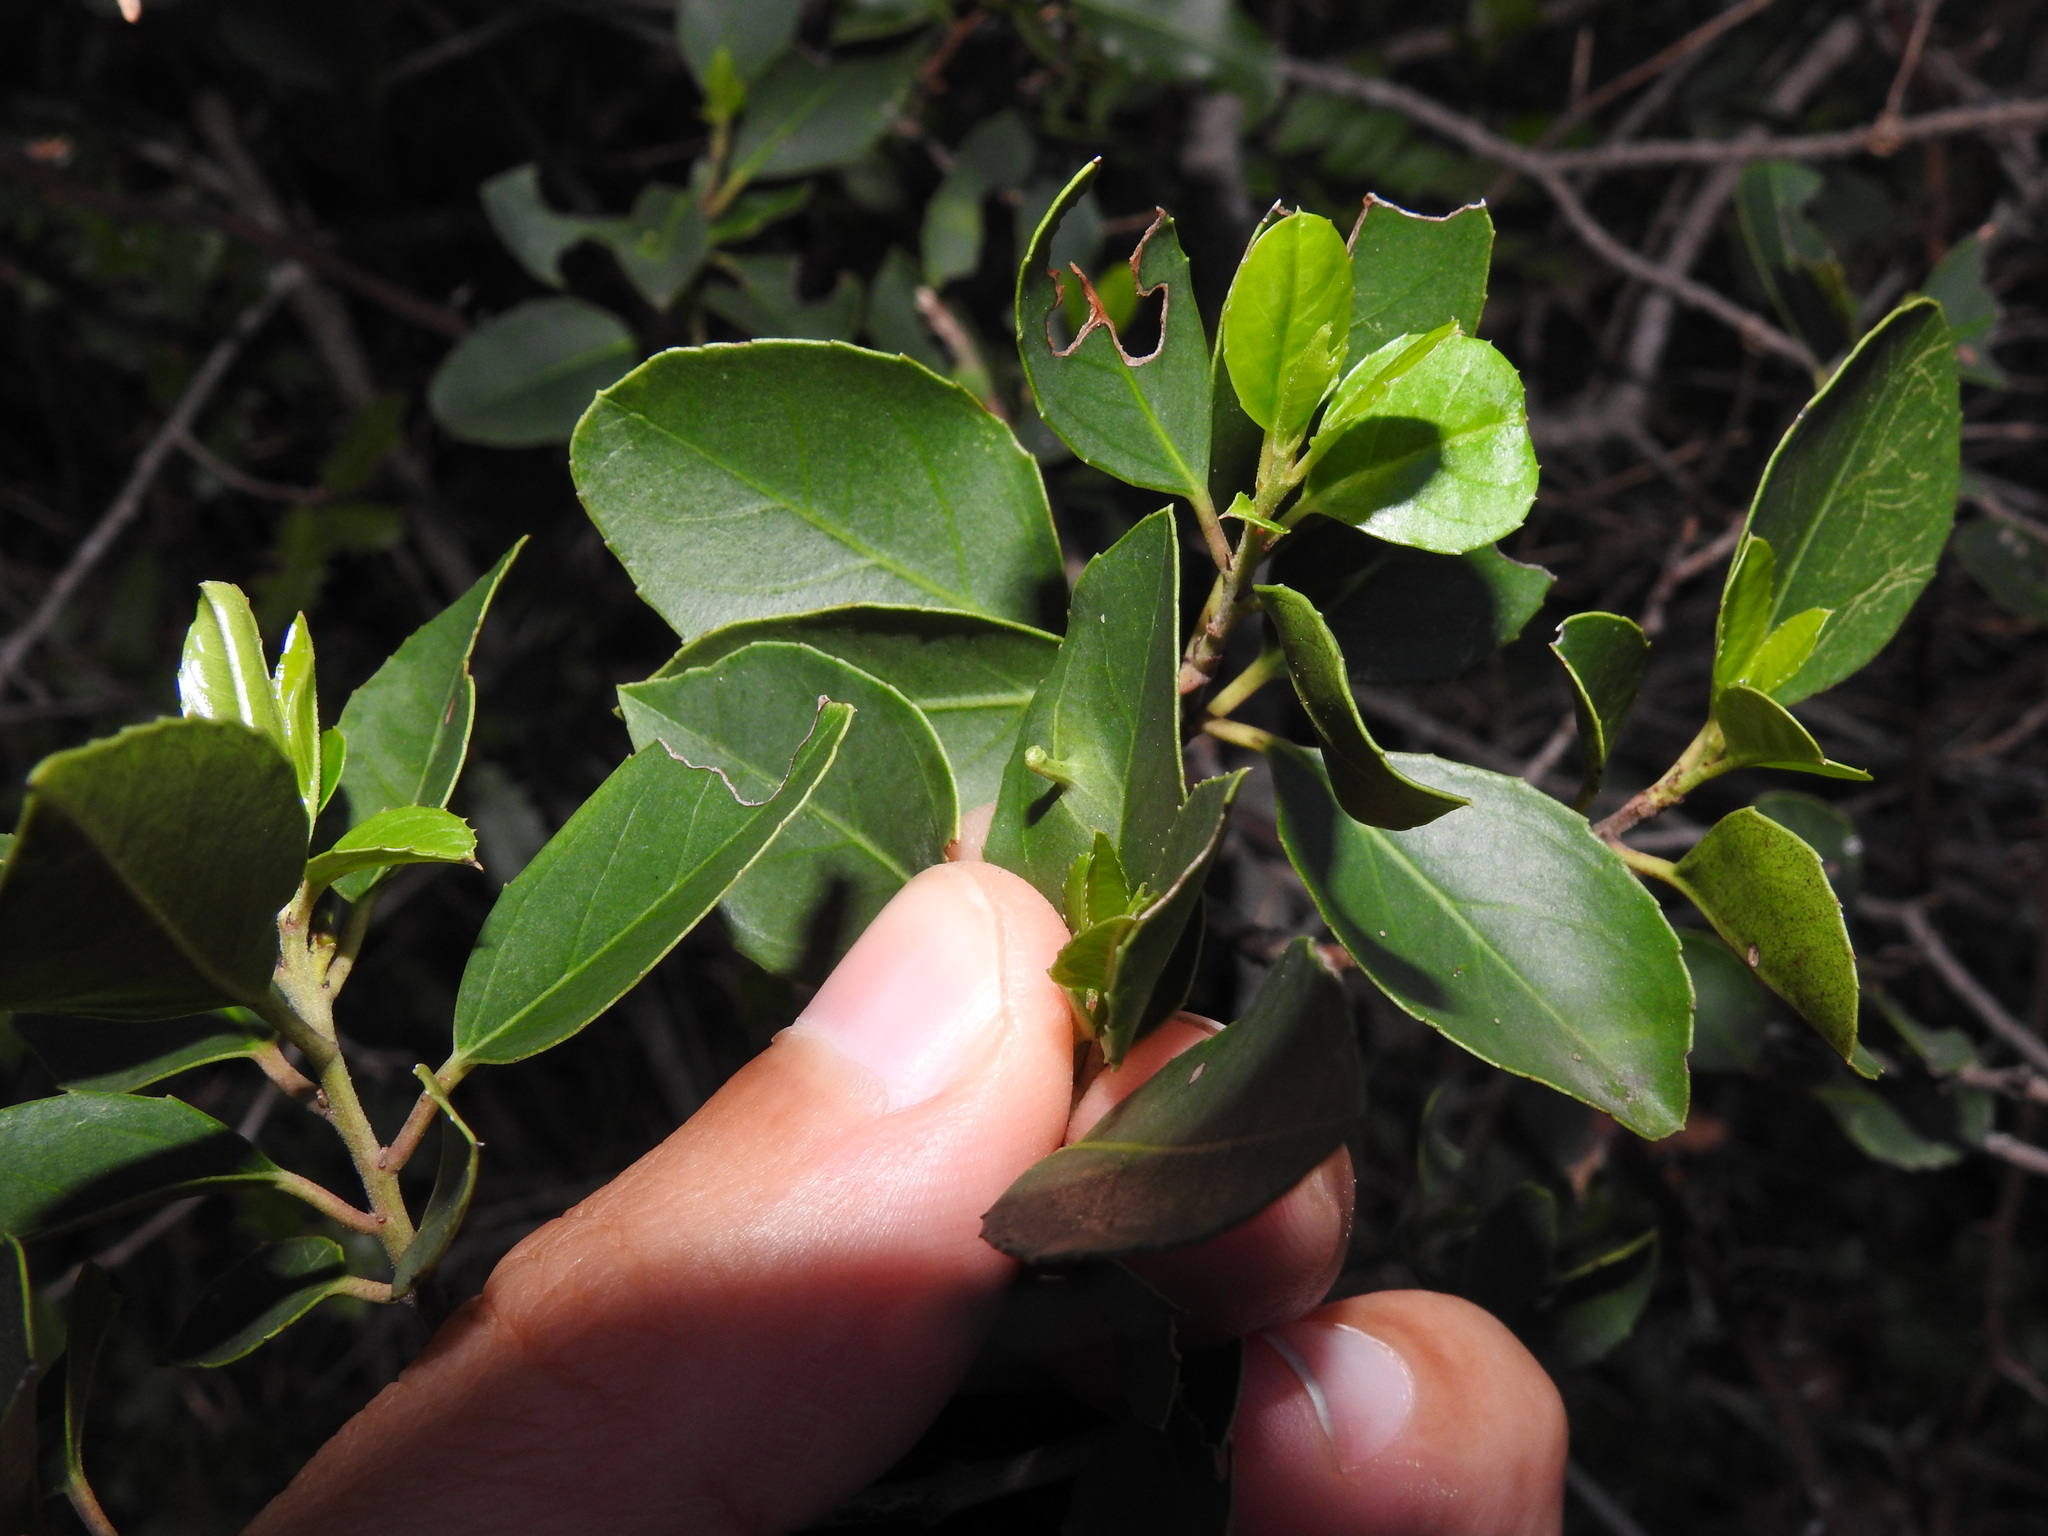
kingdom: Animalia
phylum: Arthropoda
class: Insecta
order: Hemiptera
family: Triozidae
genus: Trioza
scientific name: Trioza kiefferi
